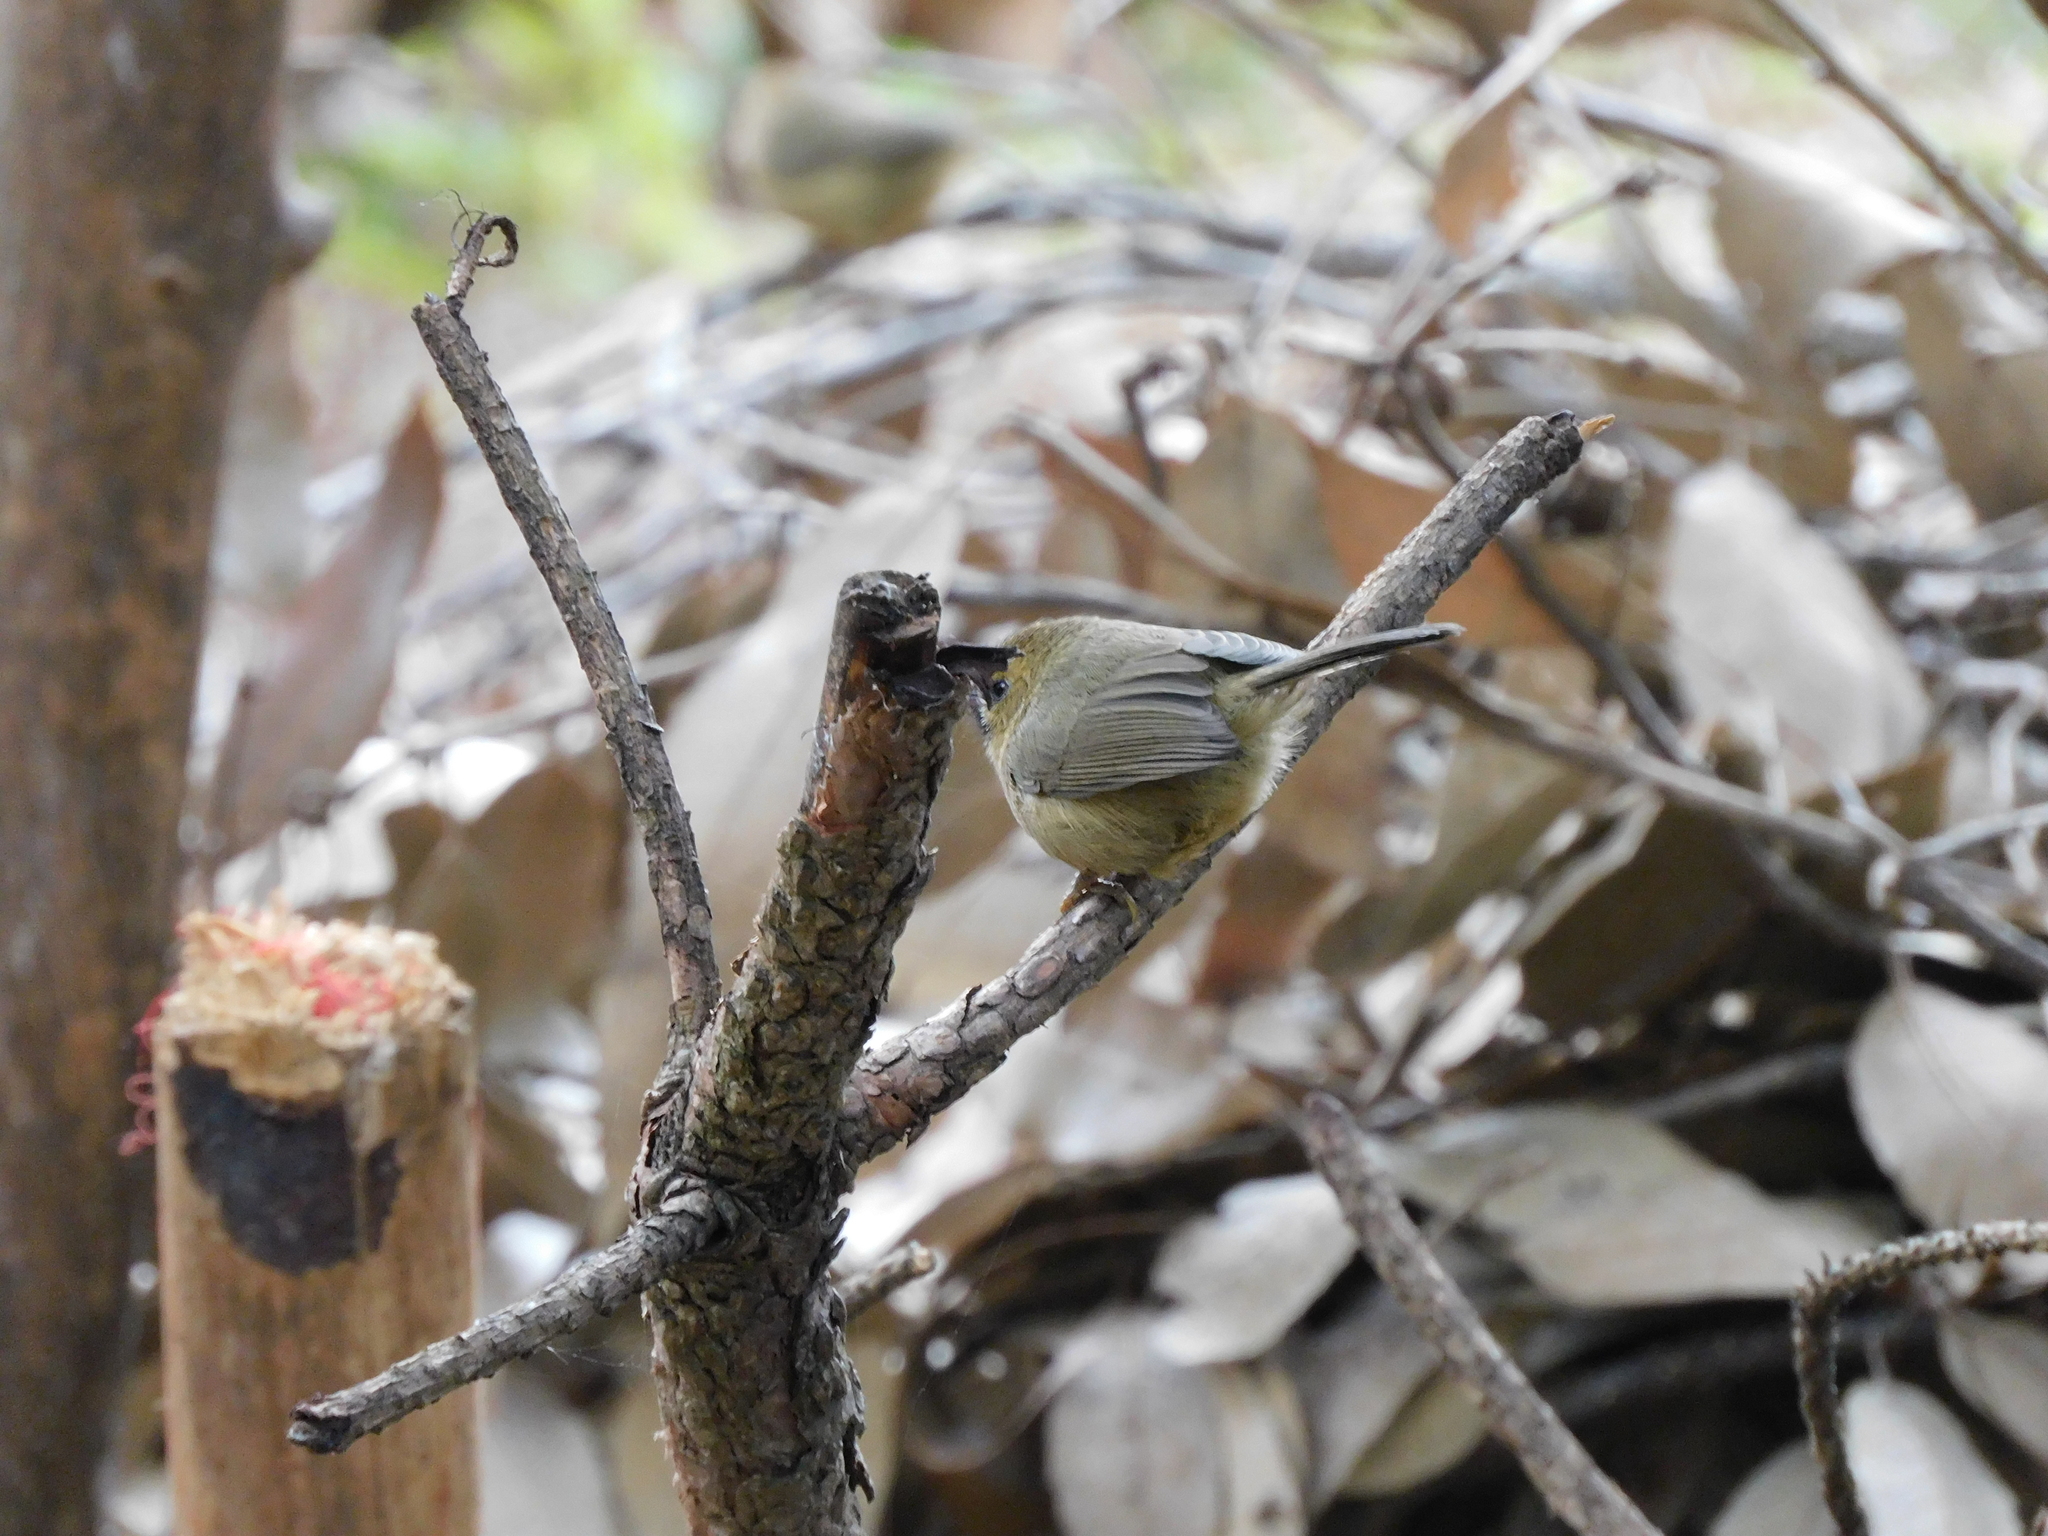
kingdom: Animalia
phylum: Chordata
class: Aves
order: Passeriformes
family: Timaliidae
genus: Stachyridopsis
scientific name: Stachyridopsis pyrrhops
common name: Black-chinned babbler
